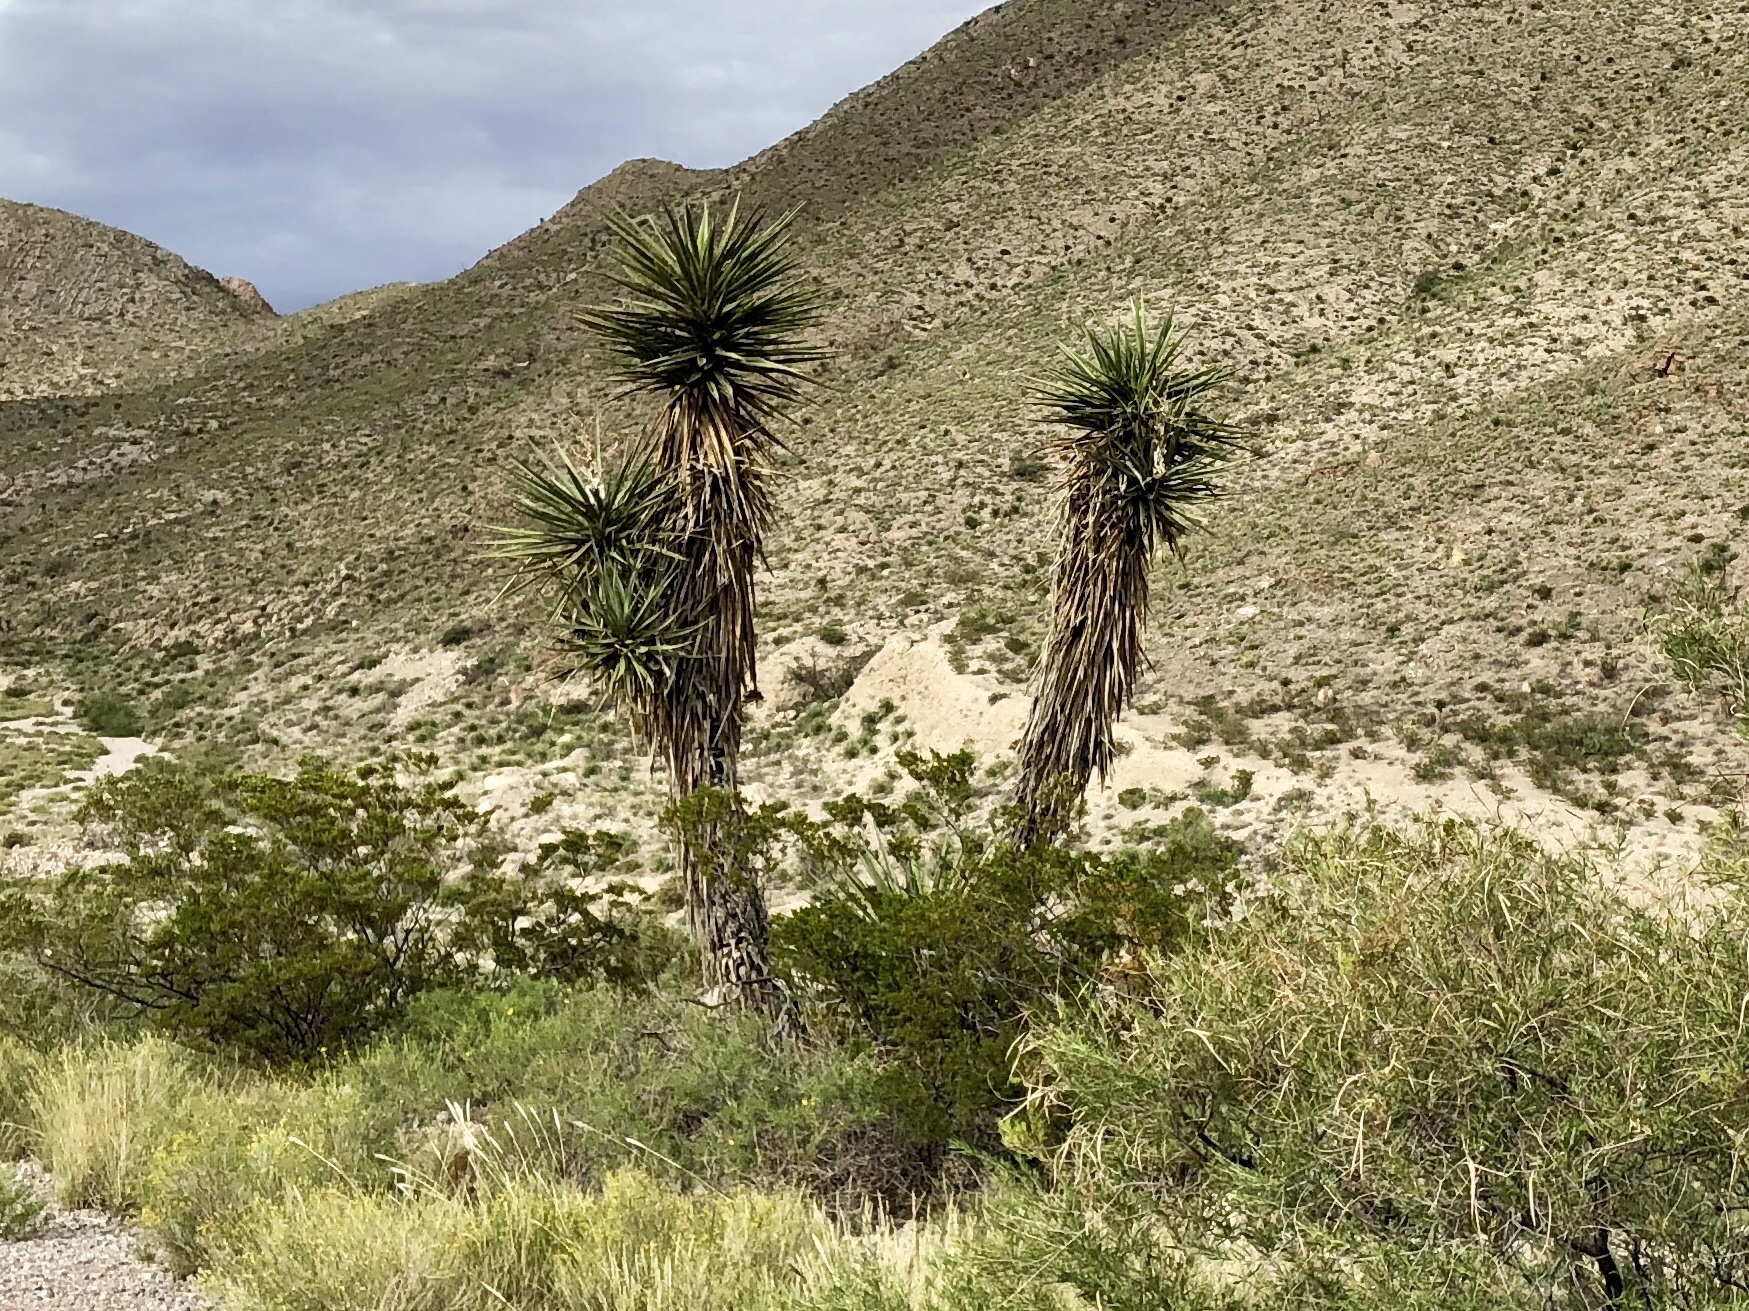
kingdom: Plantae
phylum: Tracheophyta
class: Liliopsida
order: Asparagales
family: Asparagaceae
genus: Yucca
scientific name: Yucca treculiana
